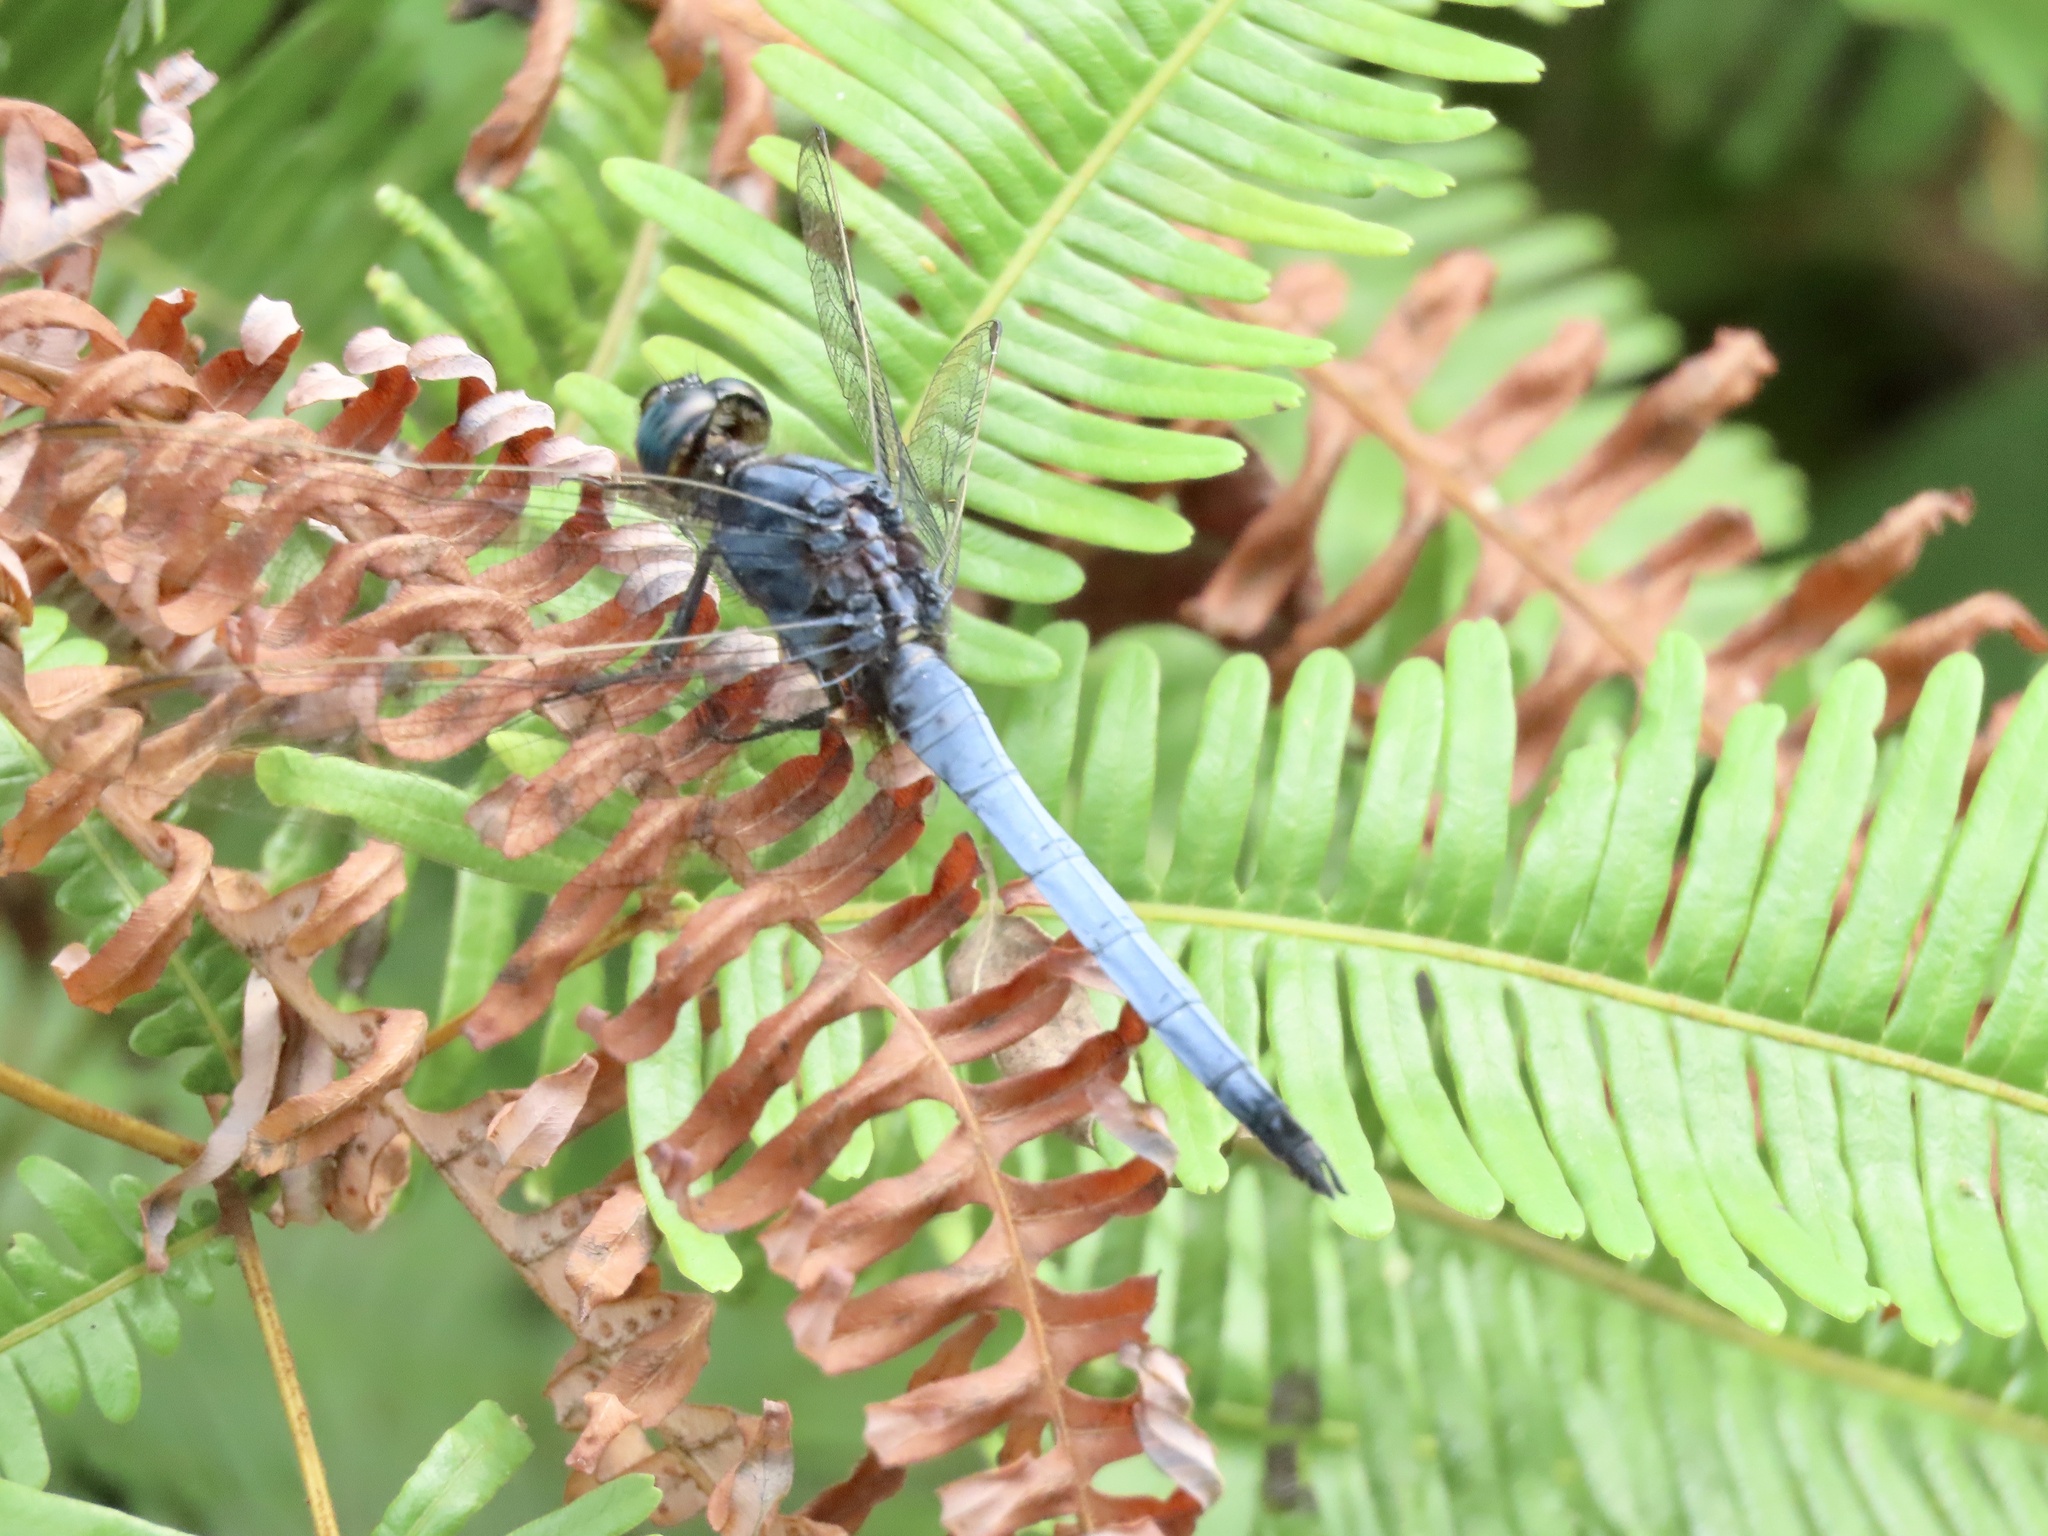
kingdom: Animalia
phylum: Arthropoda
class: Insecta
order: Odonata
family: Libellulidae
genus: Orthetrum
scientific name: Orthetrum glaucum
